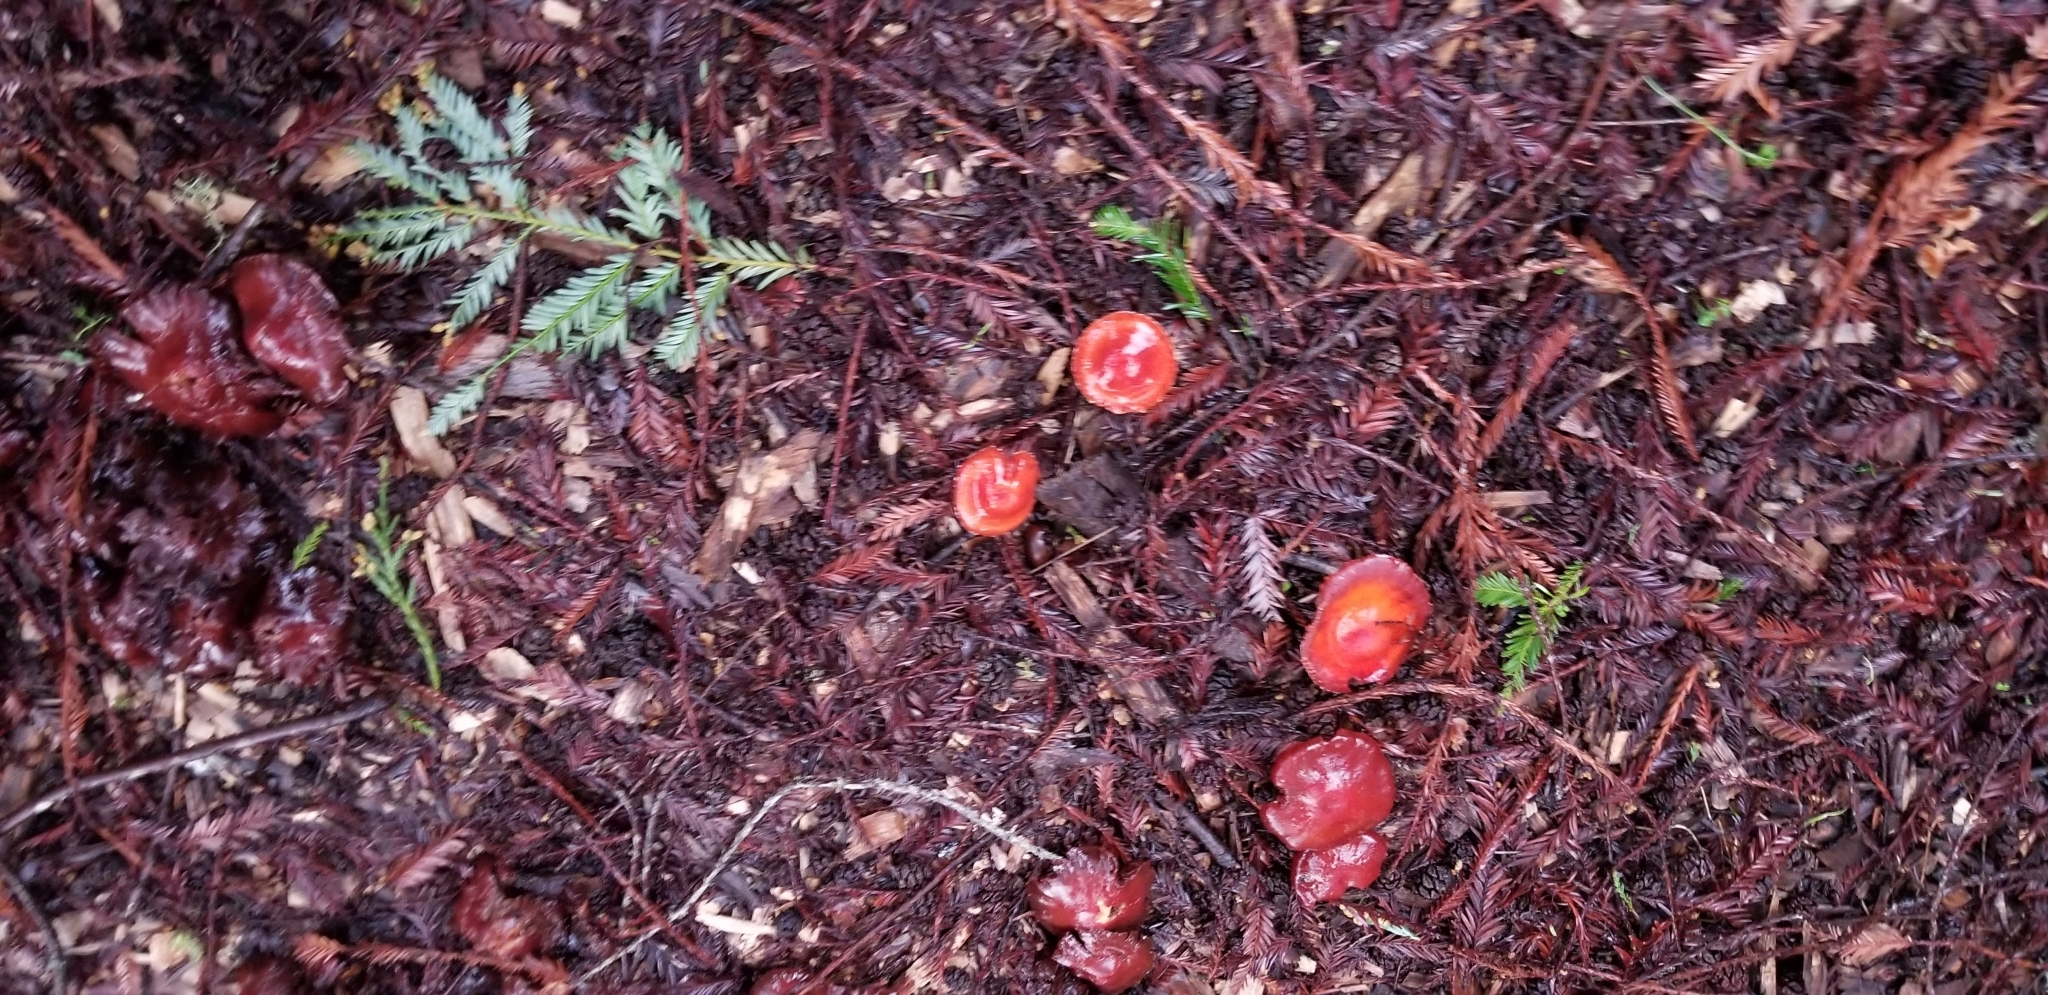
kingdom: Fungi
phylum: Basidiomycota
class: Agaricomycetes
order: Agaricales
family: Strophariaceae
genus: Leratiomyces
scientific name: Leratiomyces ceres
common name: Redlead roundhead
